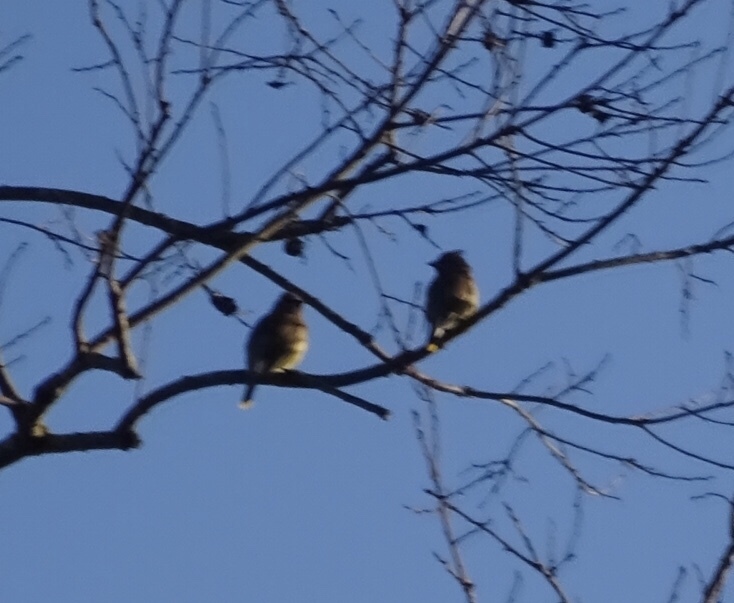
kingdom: Animalia
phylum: Chordata
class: Aves
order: Passeriformes
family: Bombycillidae
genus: Bombycilla
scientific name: Bombycilla cedrorum
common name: Cedar waxwing
